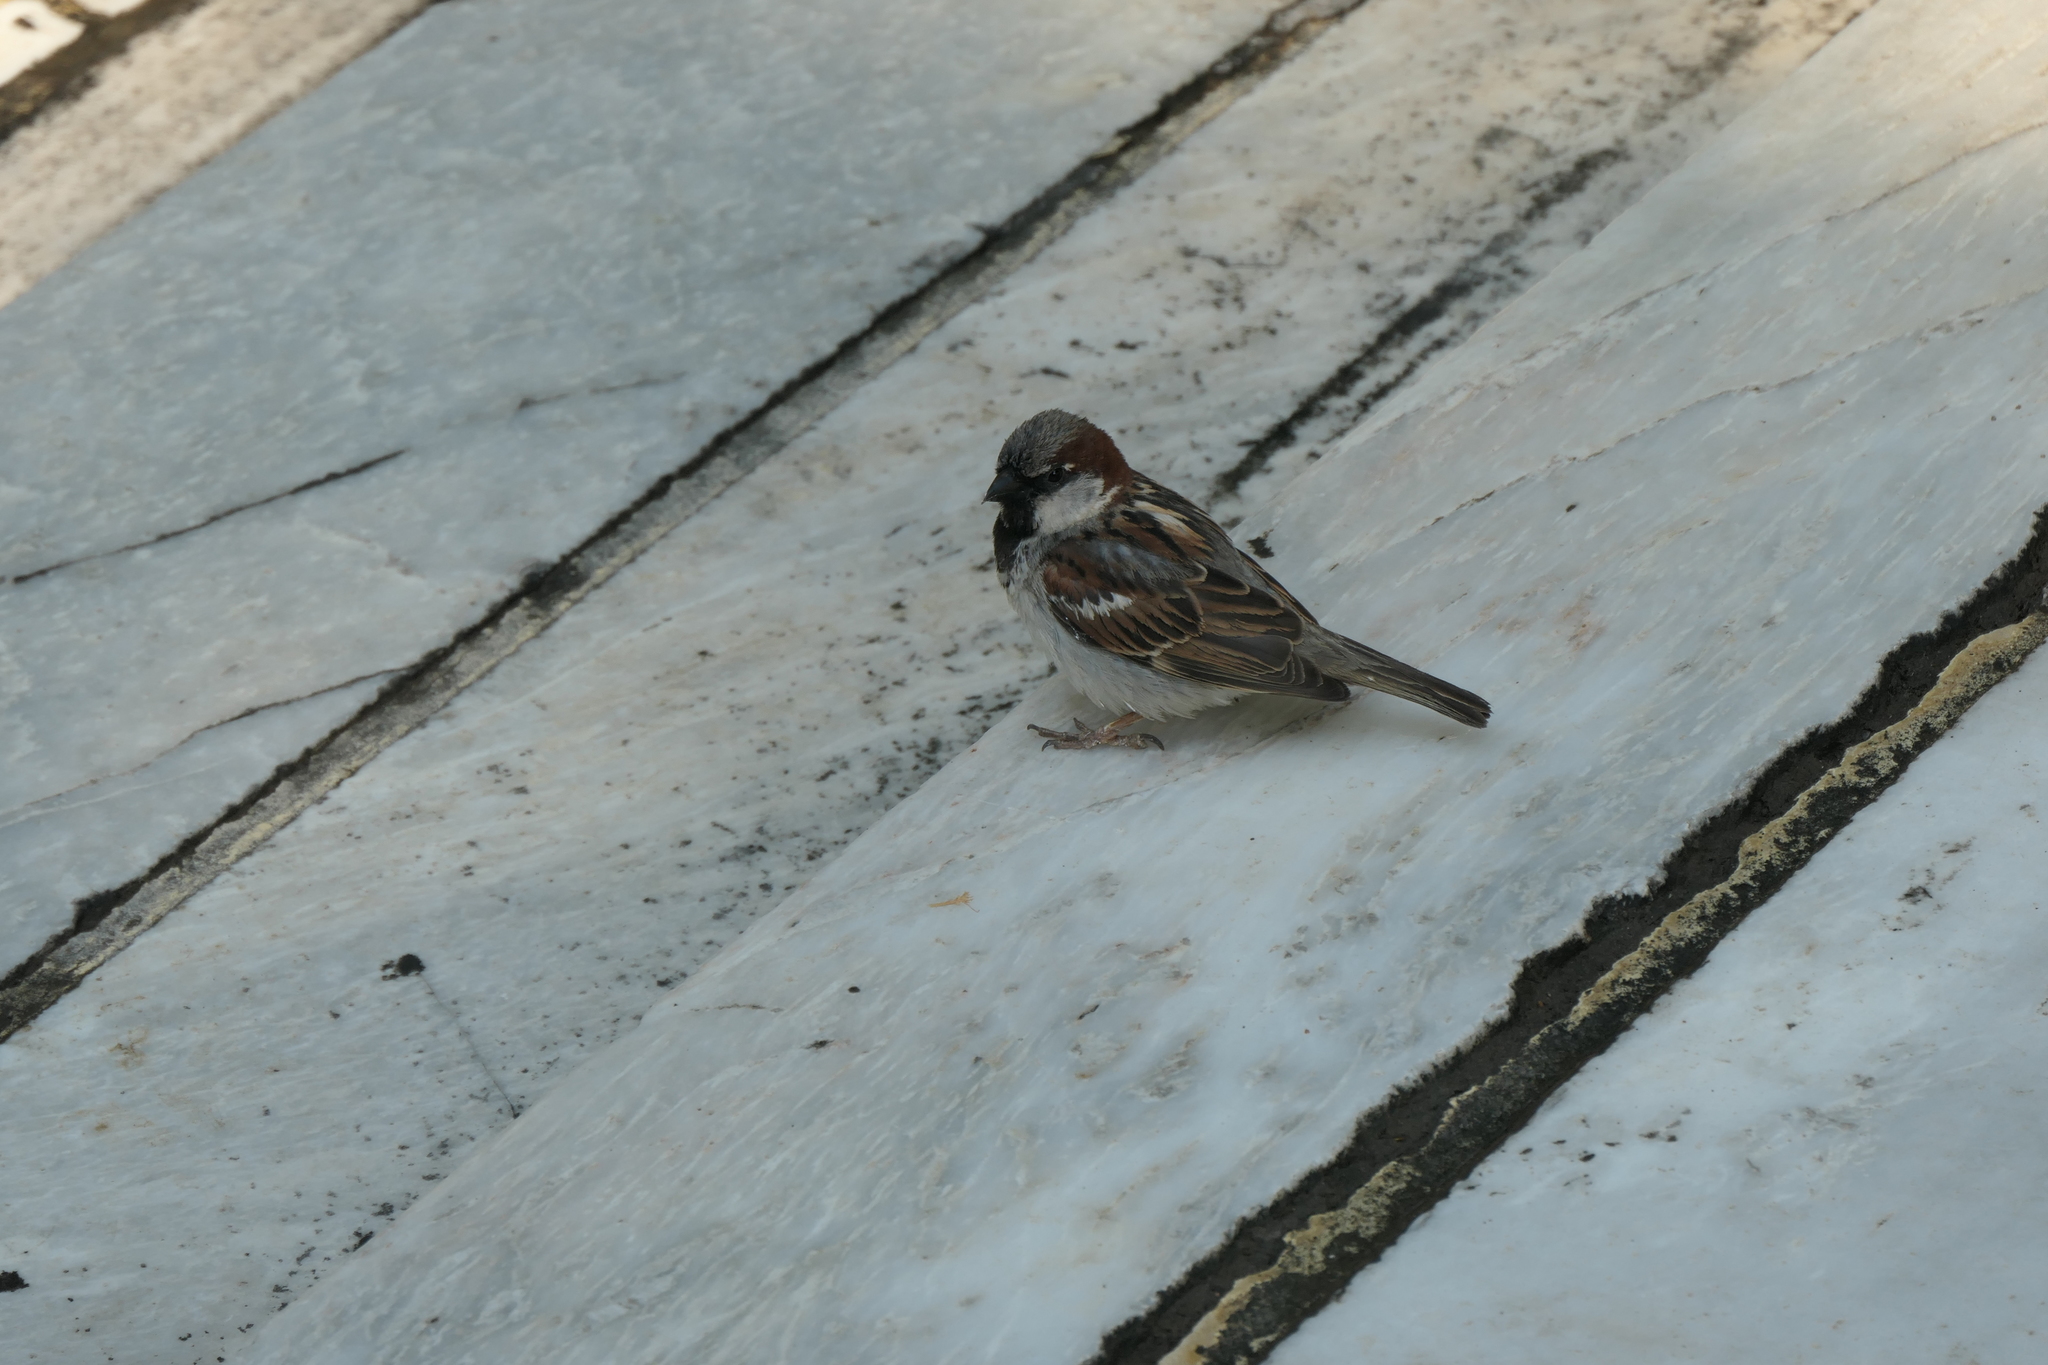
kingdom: Animalia
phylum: Chordata
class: Aves
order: Passeriformes
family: Passeridae
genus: Passer
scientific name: Passer domesticus
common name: House sparrow
